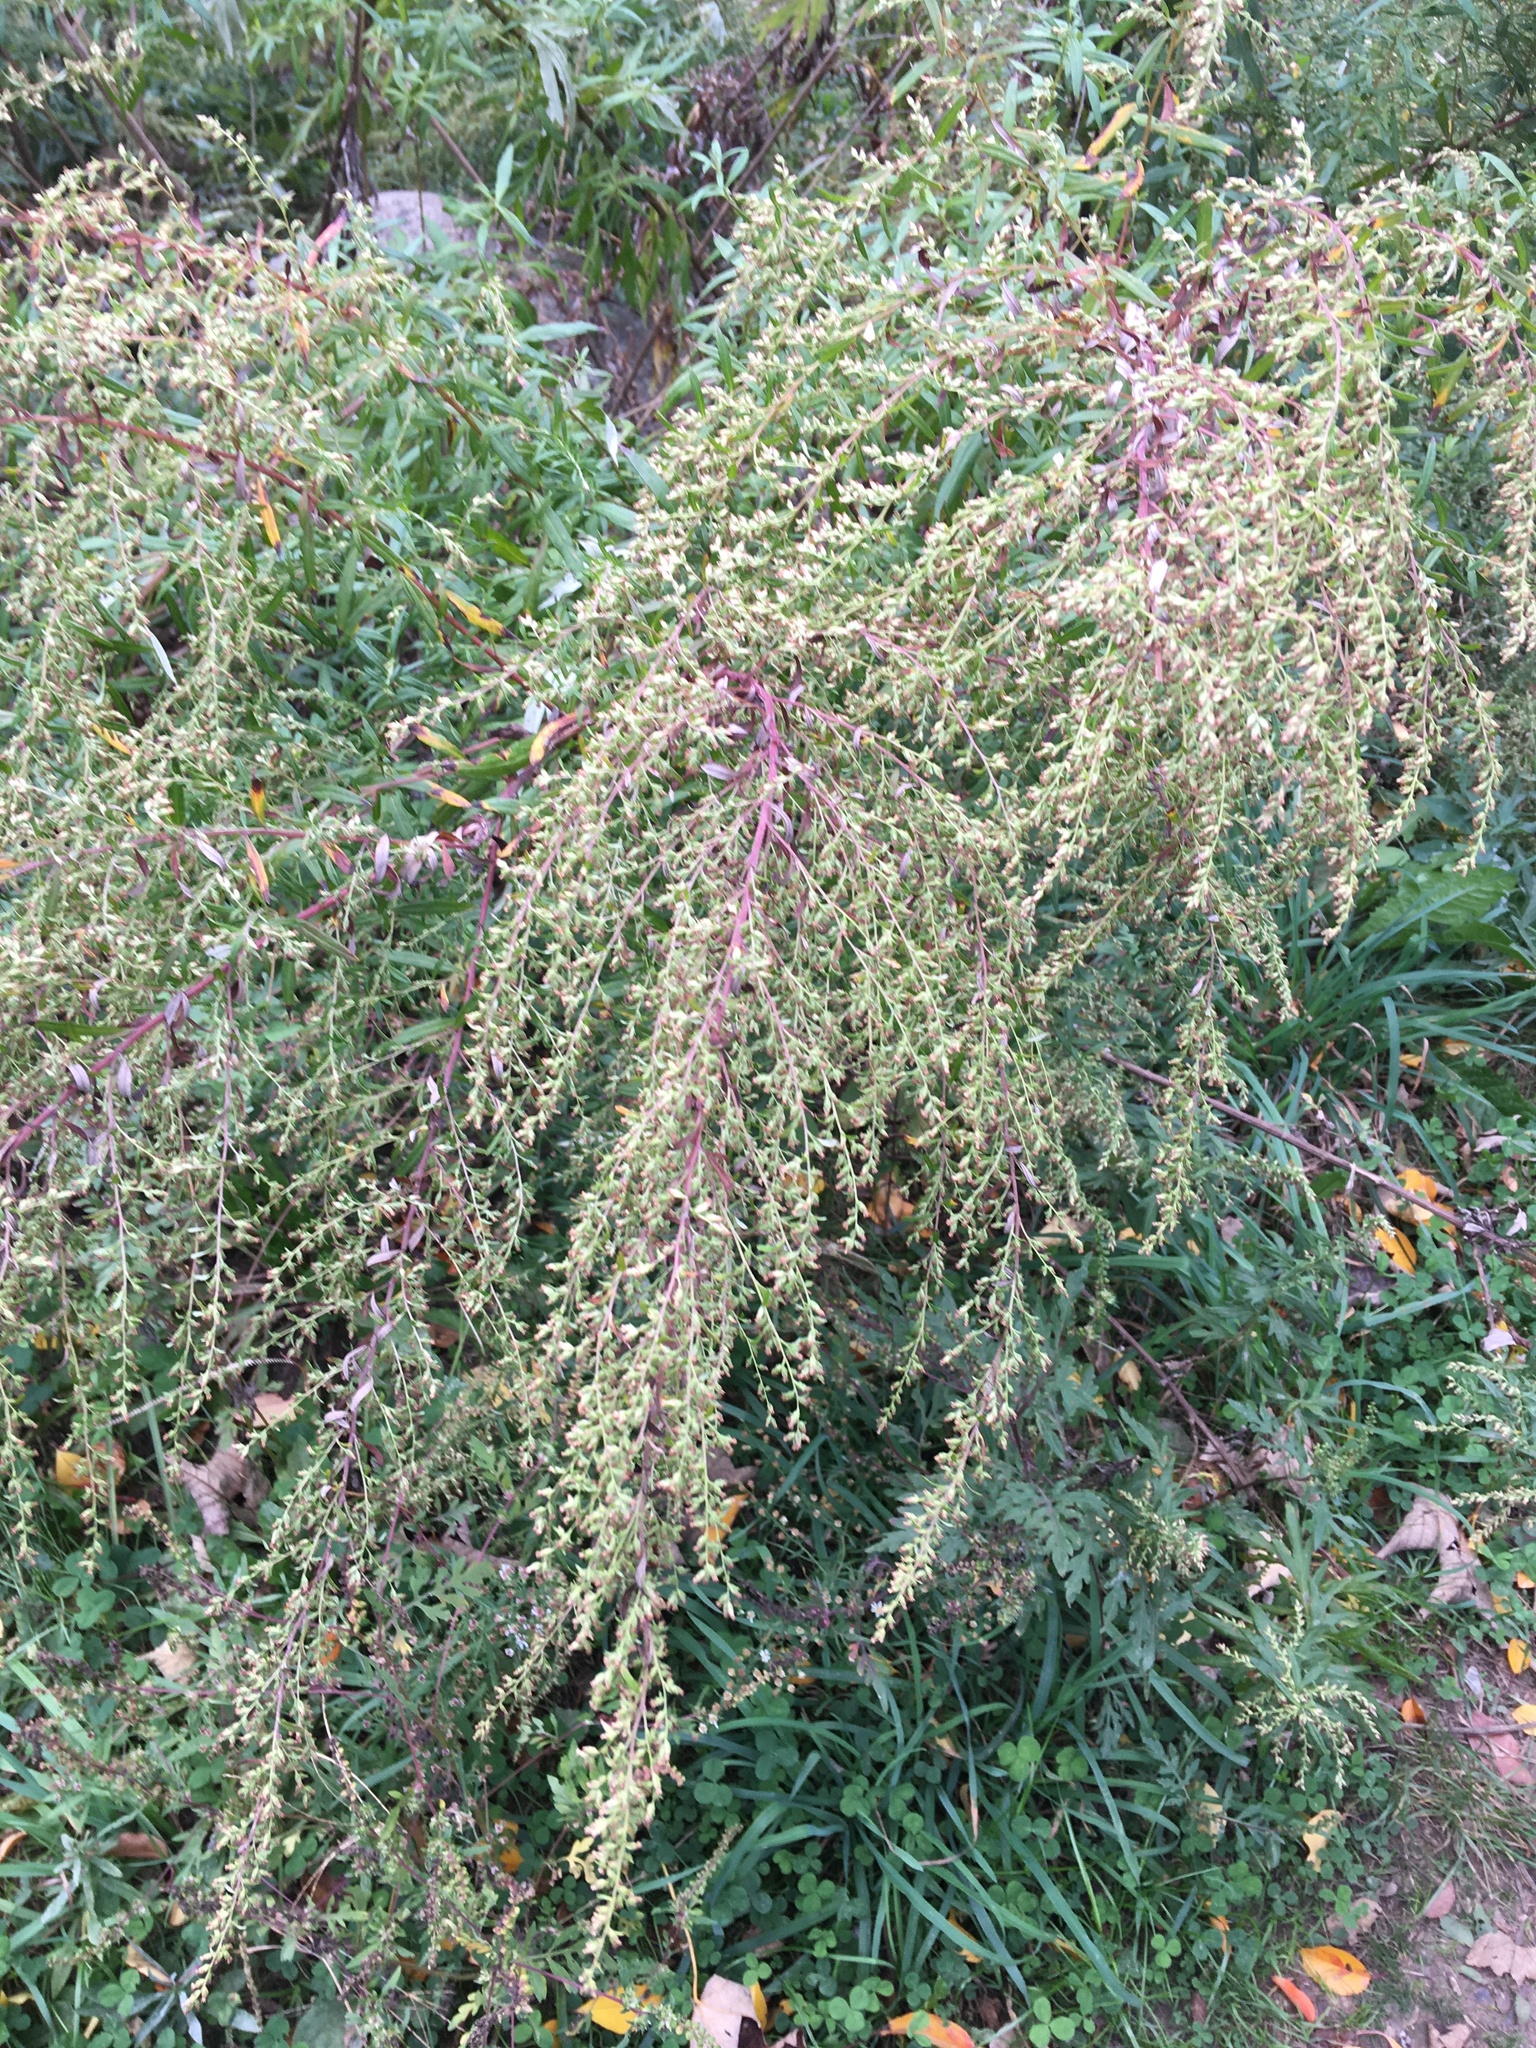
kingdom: Plantae
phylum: Tracheophyta
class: Magnoliopsida
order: Asterales
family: Asteraceae
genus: Artemisia
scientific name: Artemisia vulgaris
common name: Mugwort
